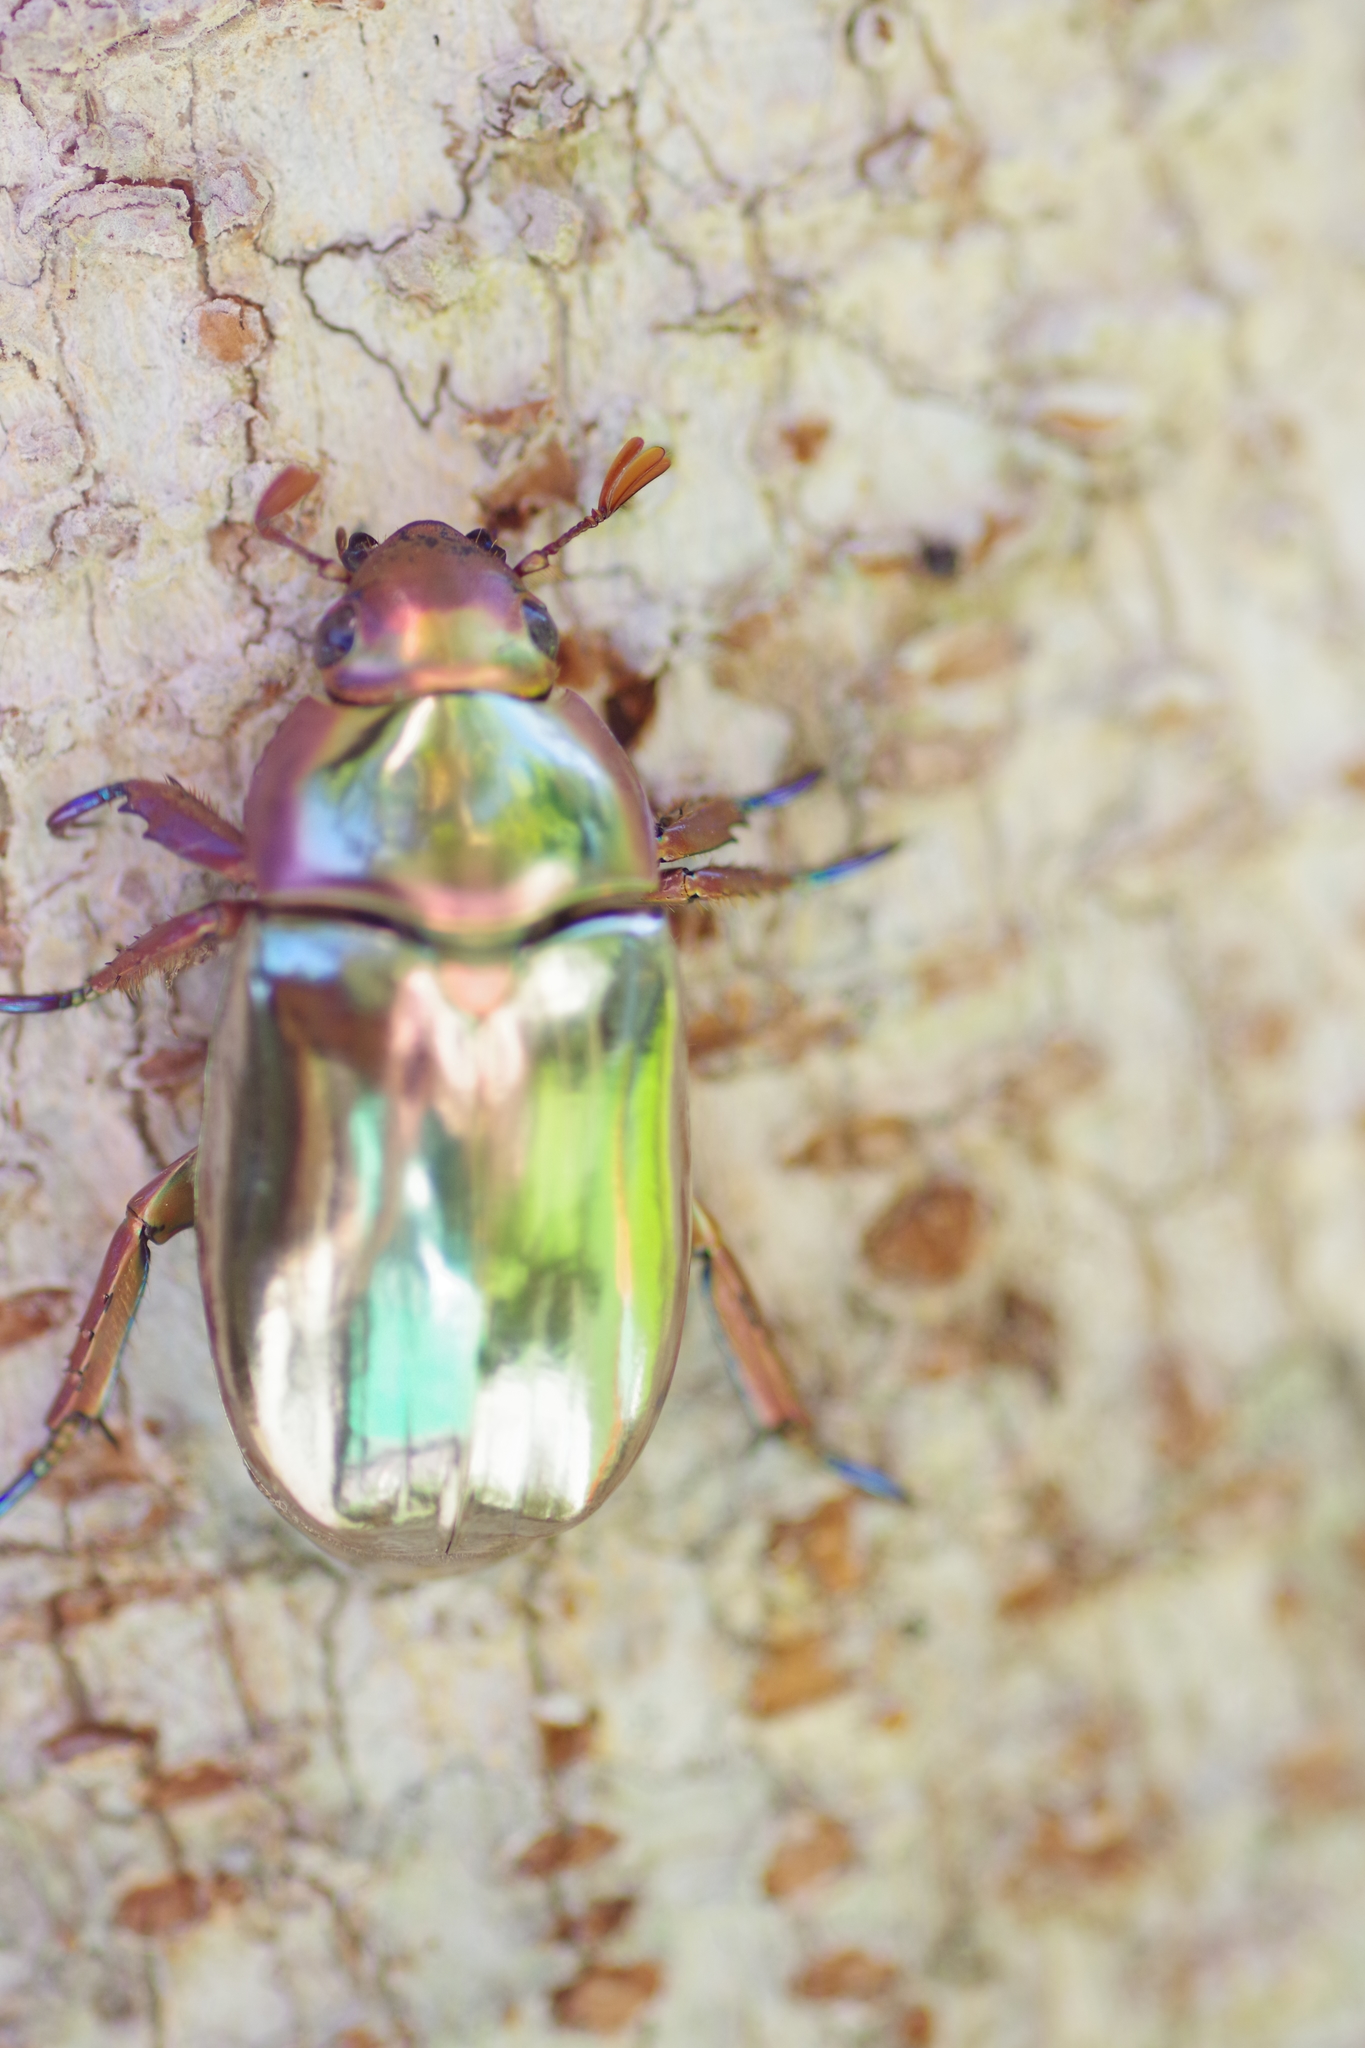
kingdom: Animalia
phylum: Arthropoda
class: Insecta
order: Coleoptera
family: Scarabaeidae
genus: Chrysina
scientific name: Chrysina chrysargyrea
